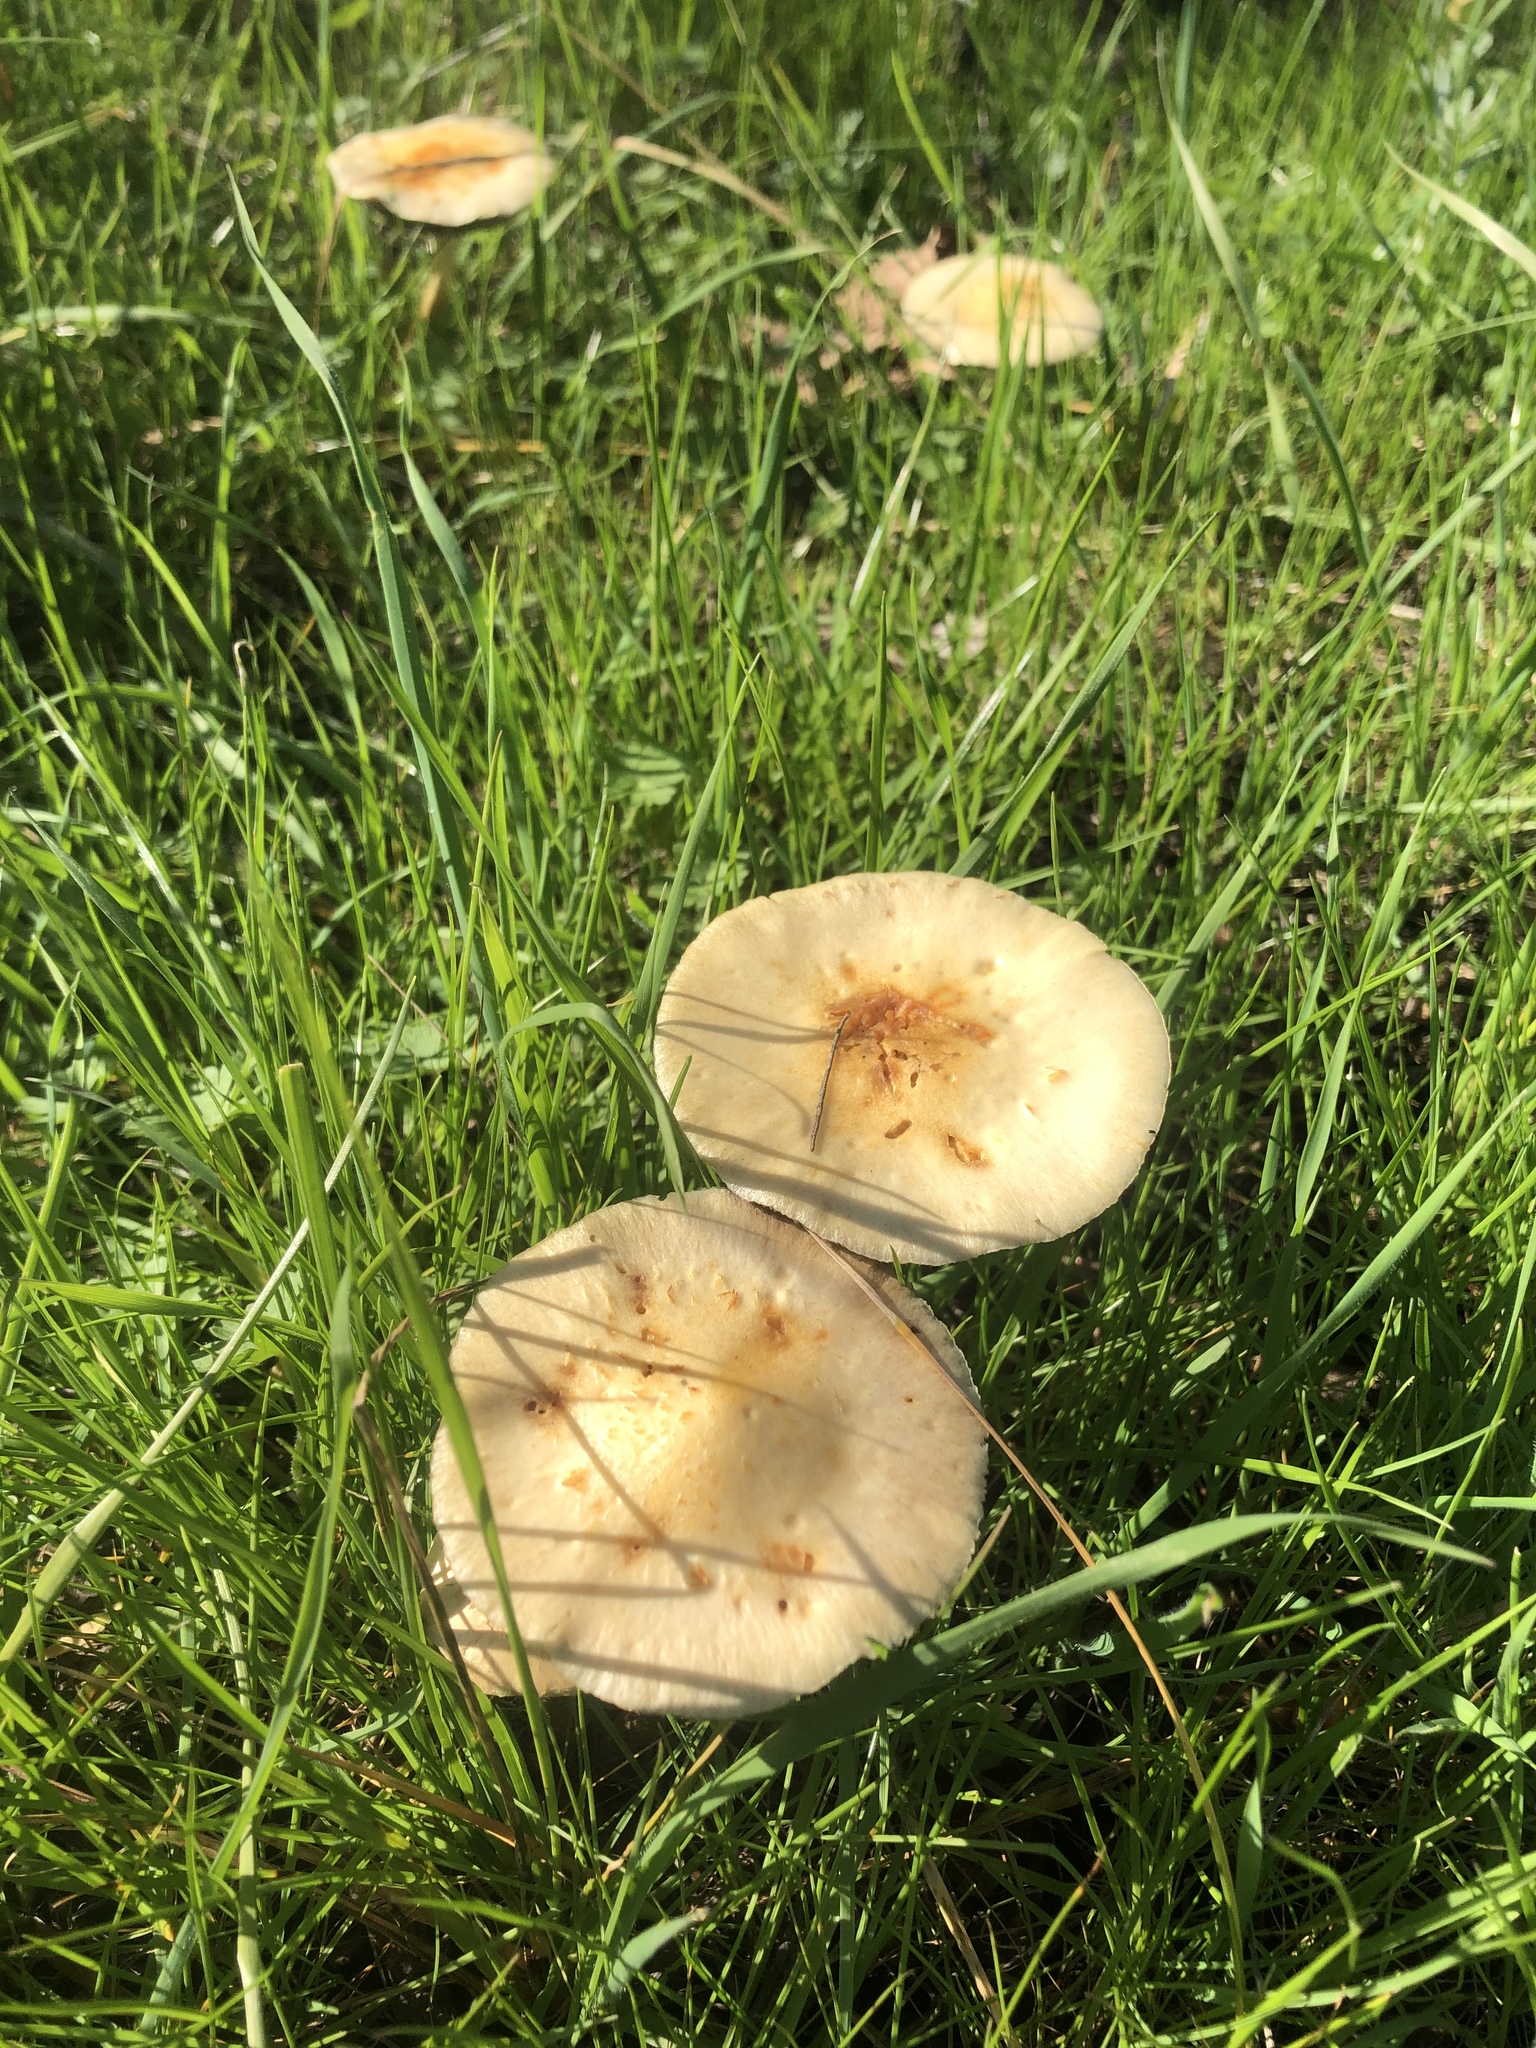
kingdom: Fungi
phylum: Basidiomycota
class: Agaricomycetes
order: Agaricales
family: Strophariaceae
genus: Leratiomyces
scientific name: Leratiomyces percevalii
